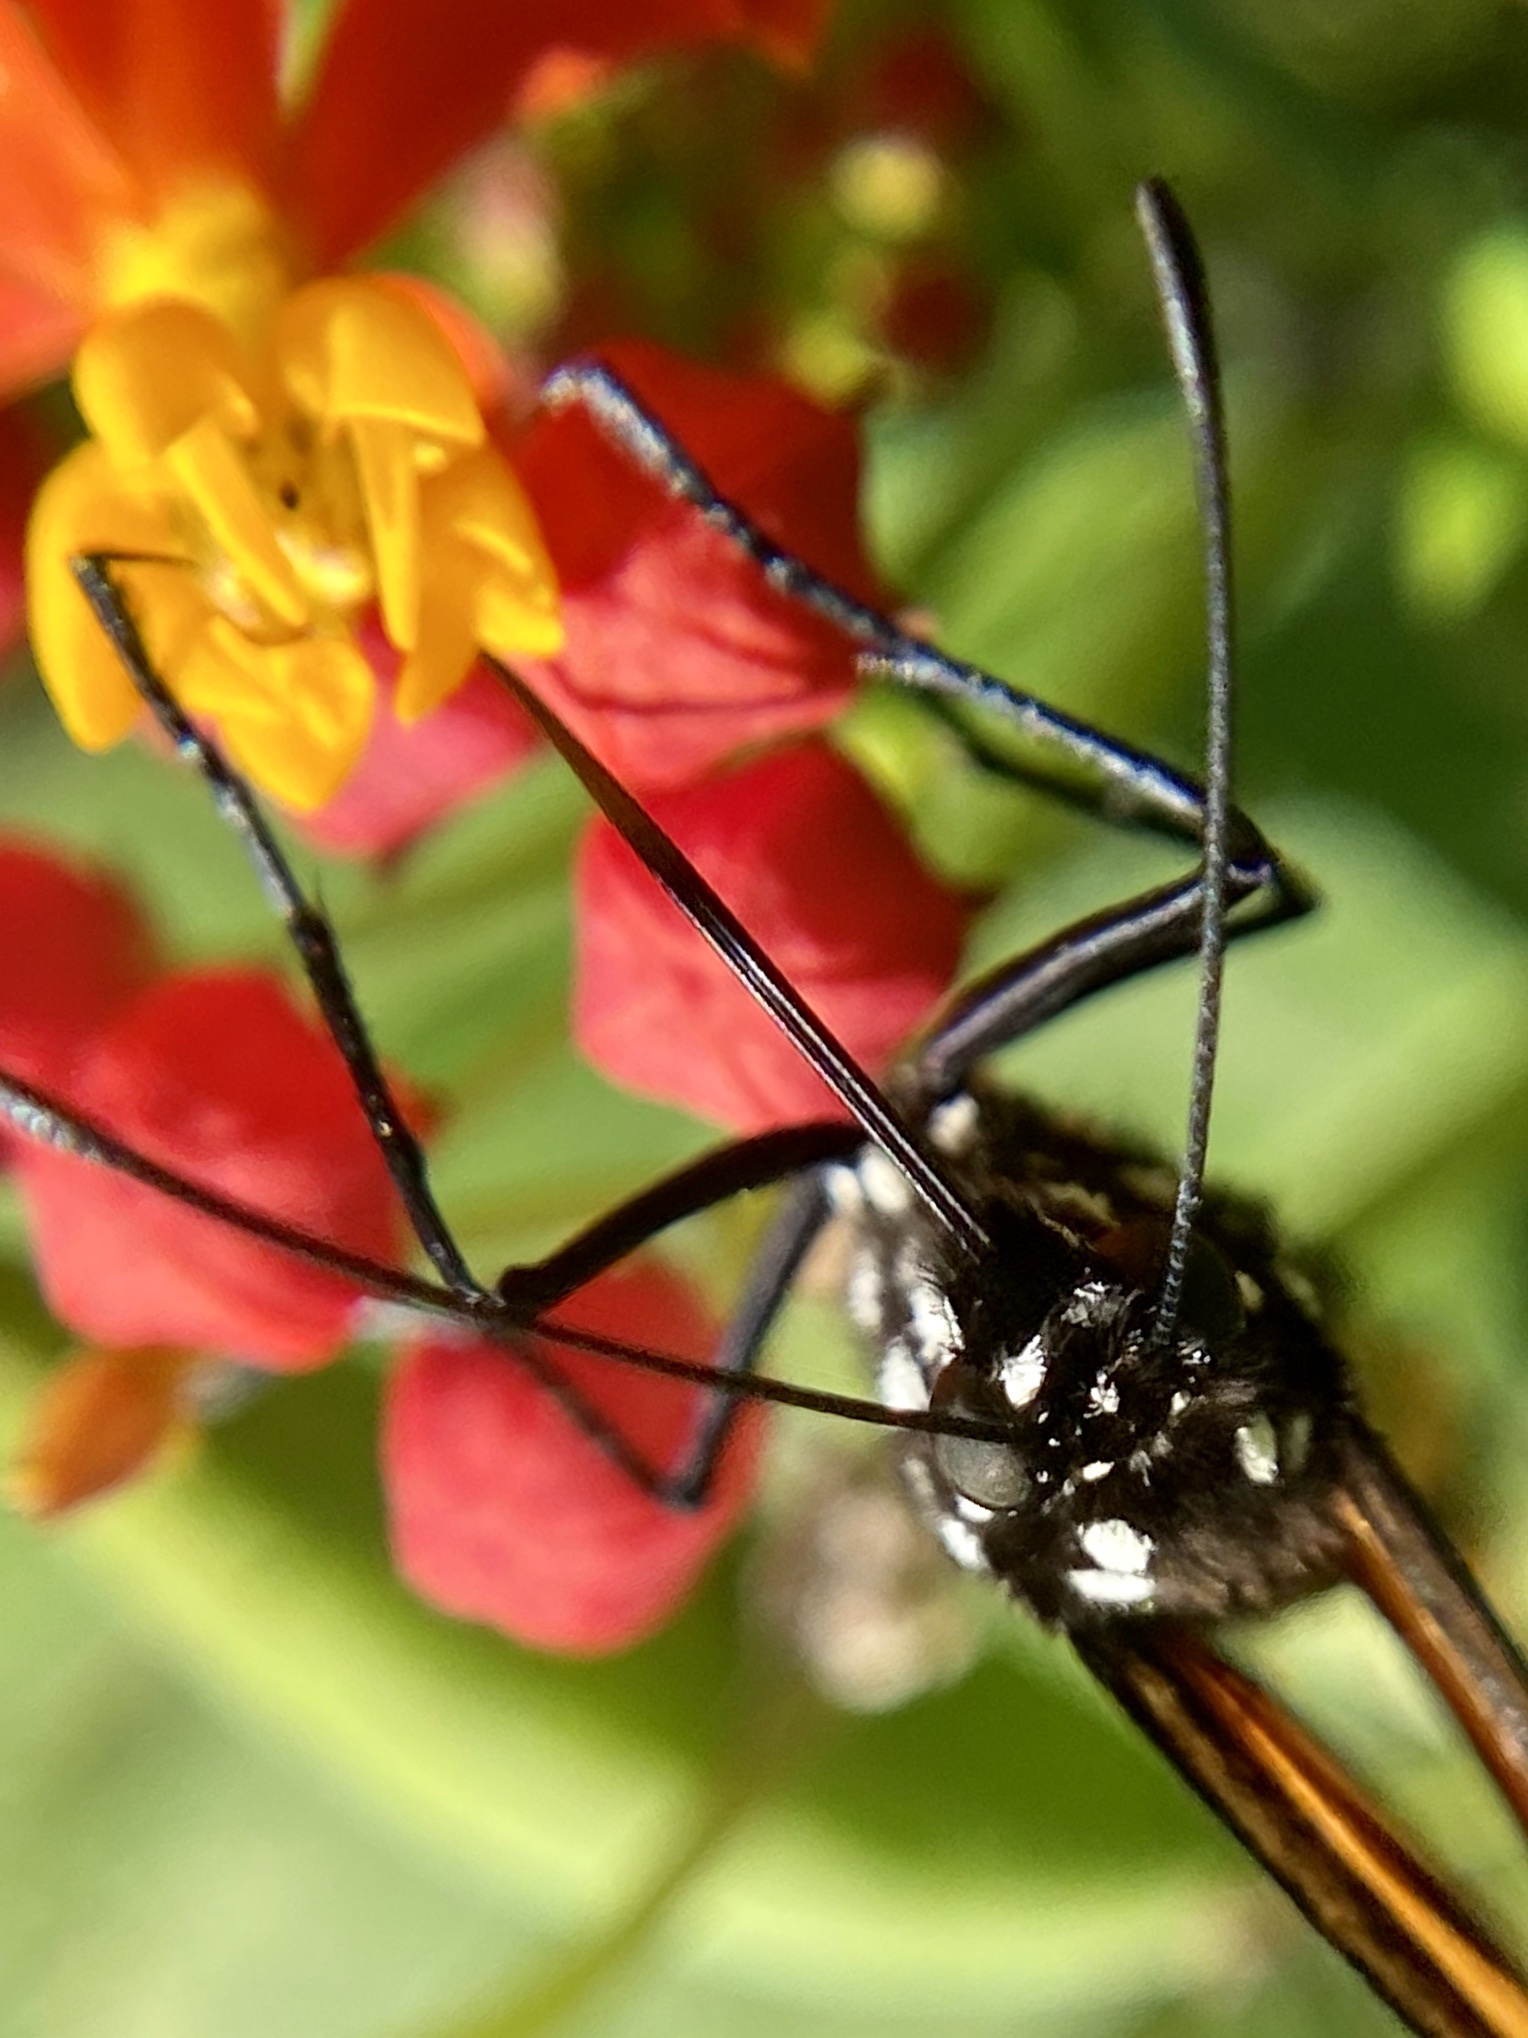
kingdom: Animalia
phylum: Arthropoda
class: Insecta
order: Lepidoptera
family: Nymphalidae
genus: Danaus
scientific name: Danaus plexippus
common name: Monarch
